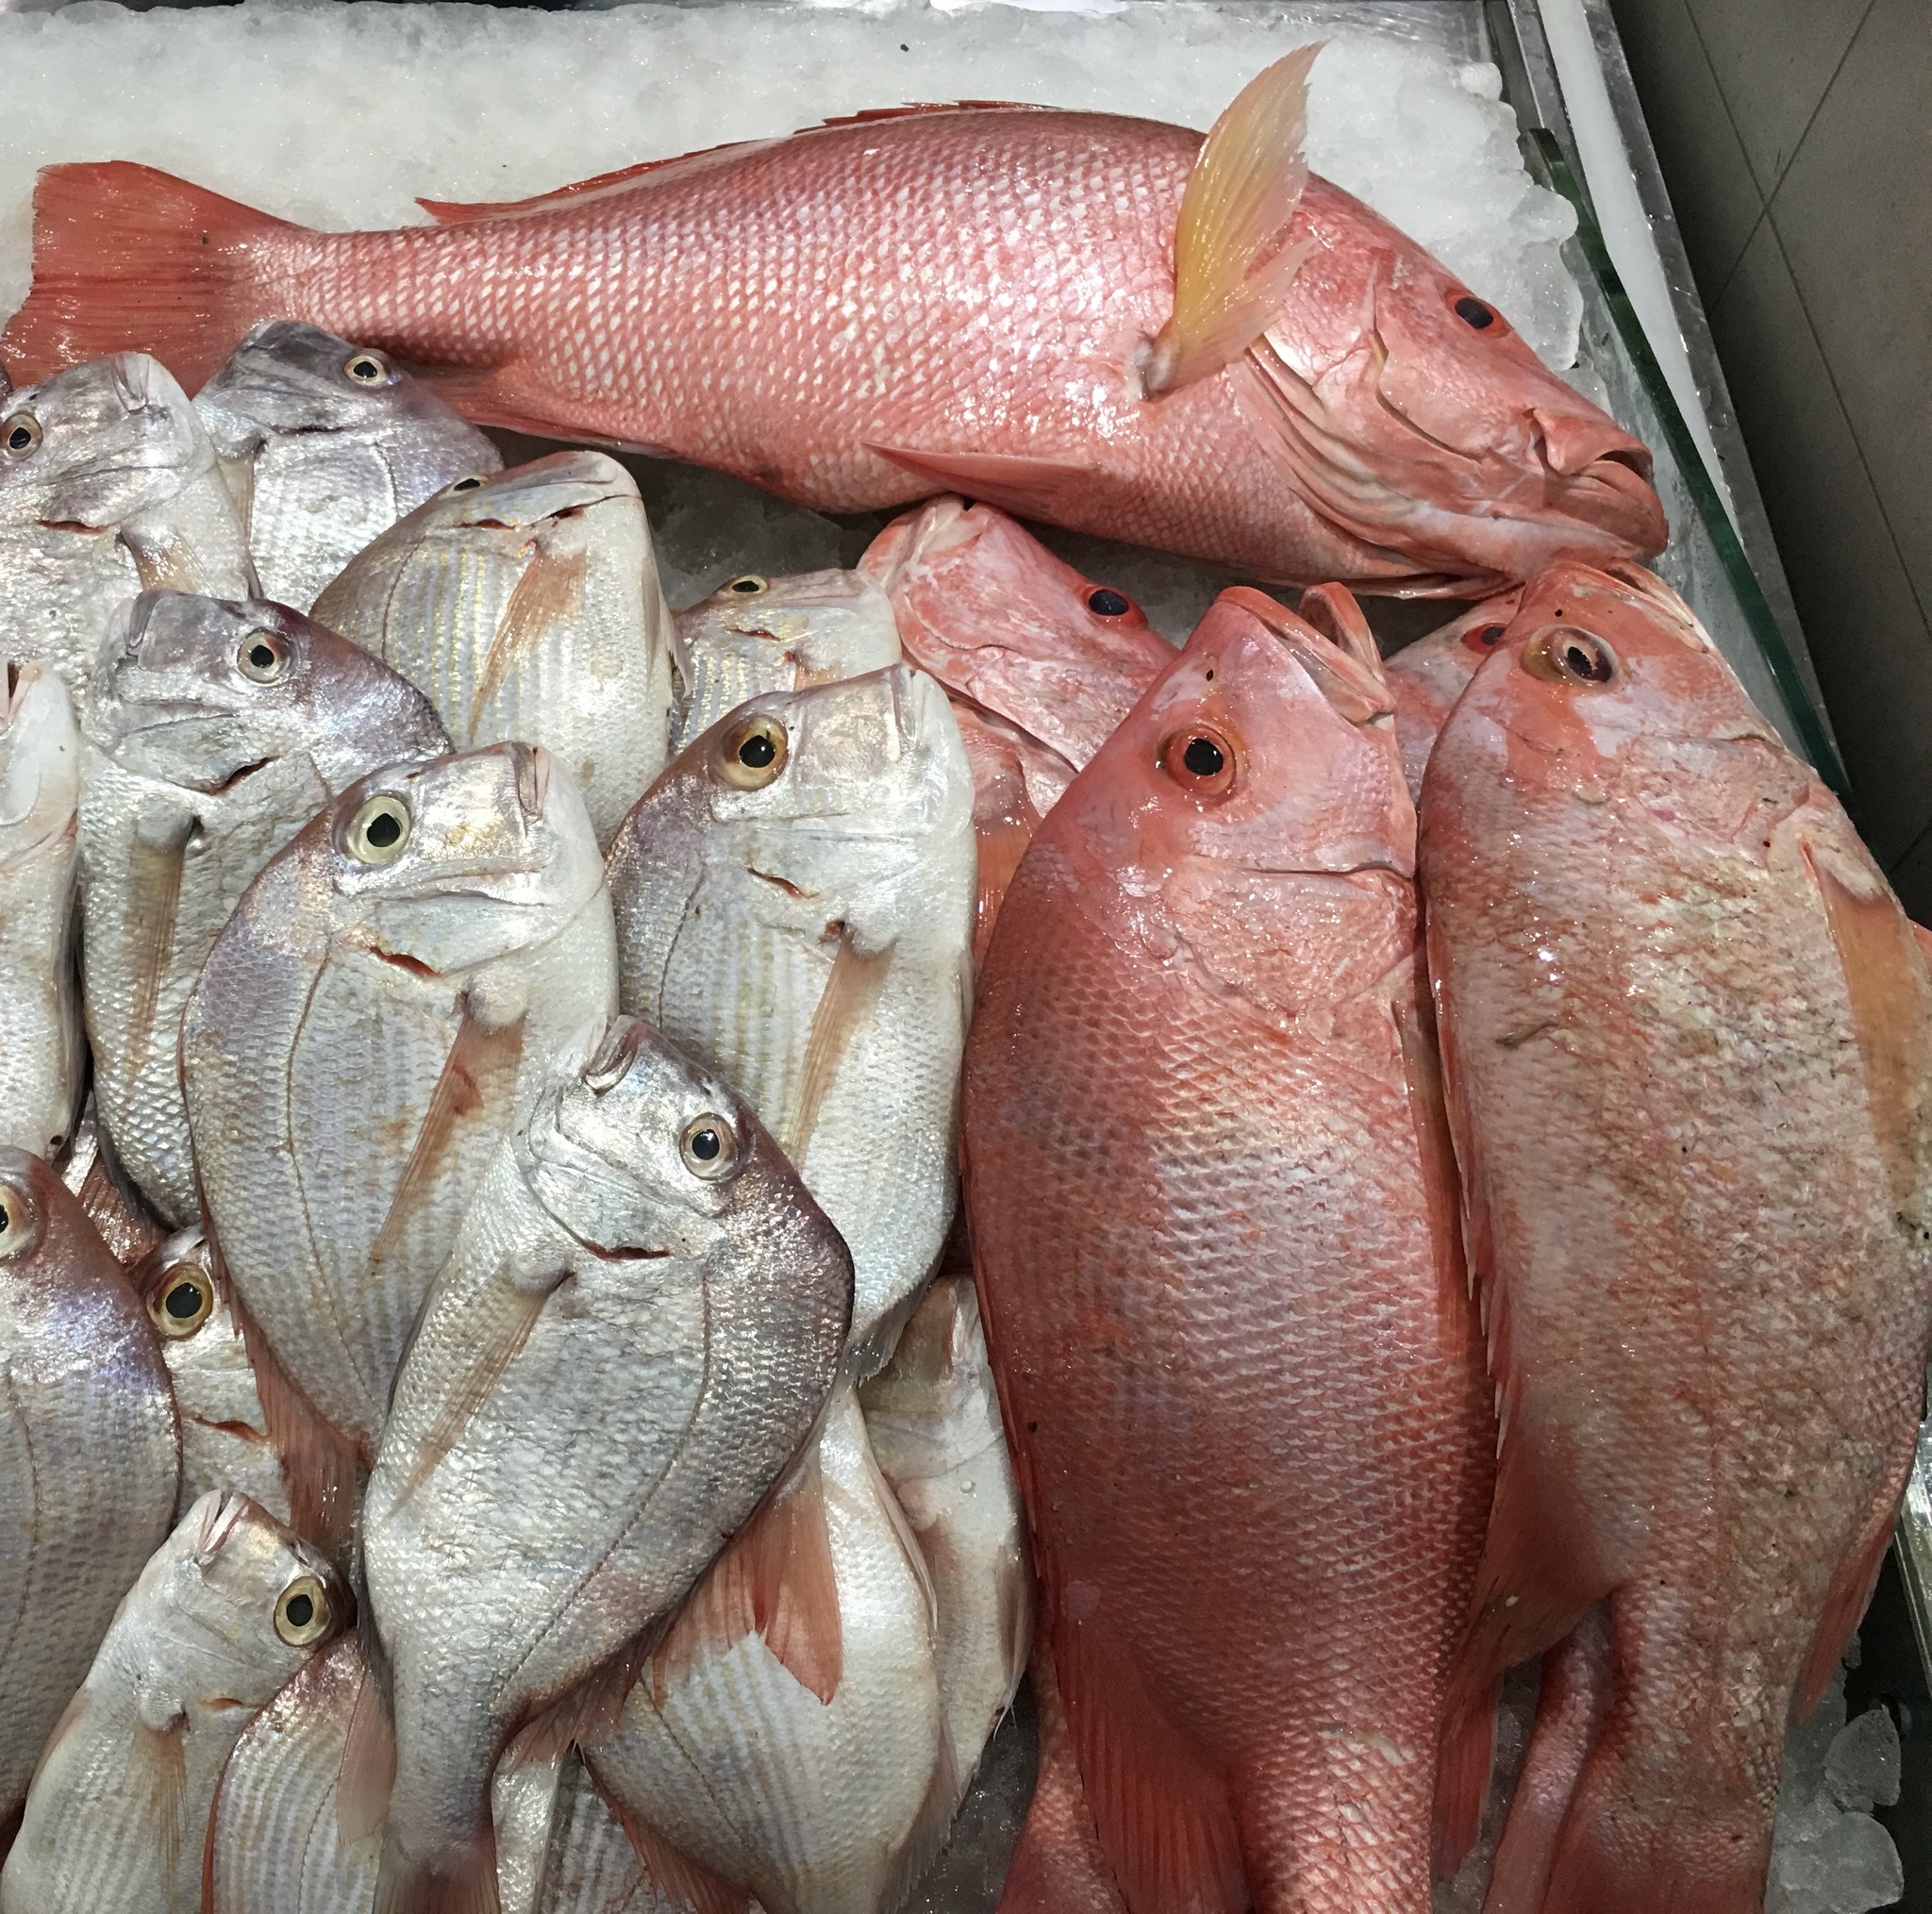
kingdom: Animalia
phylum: Chordata
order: Perciformes
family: Lutjanidae
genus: Lutjanus
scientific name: Lutjanus argentimaculatus
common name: Mangrove red snapper
